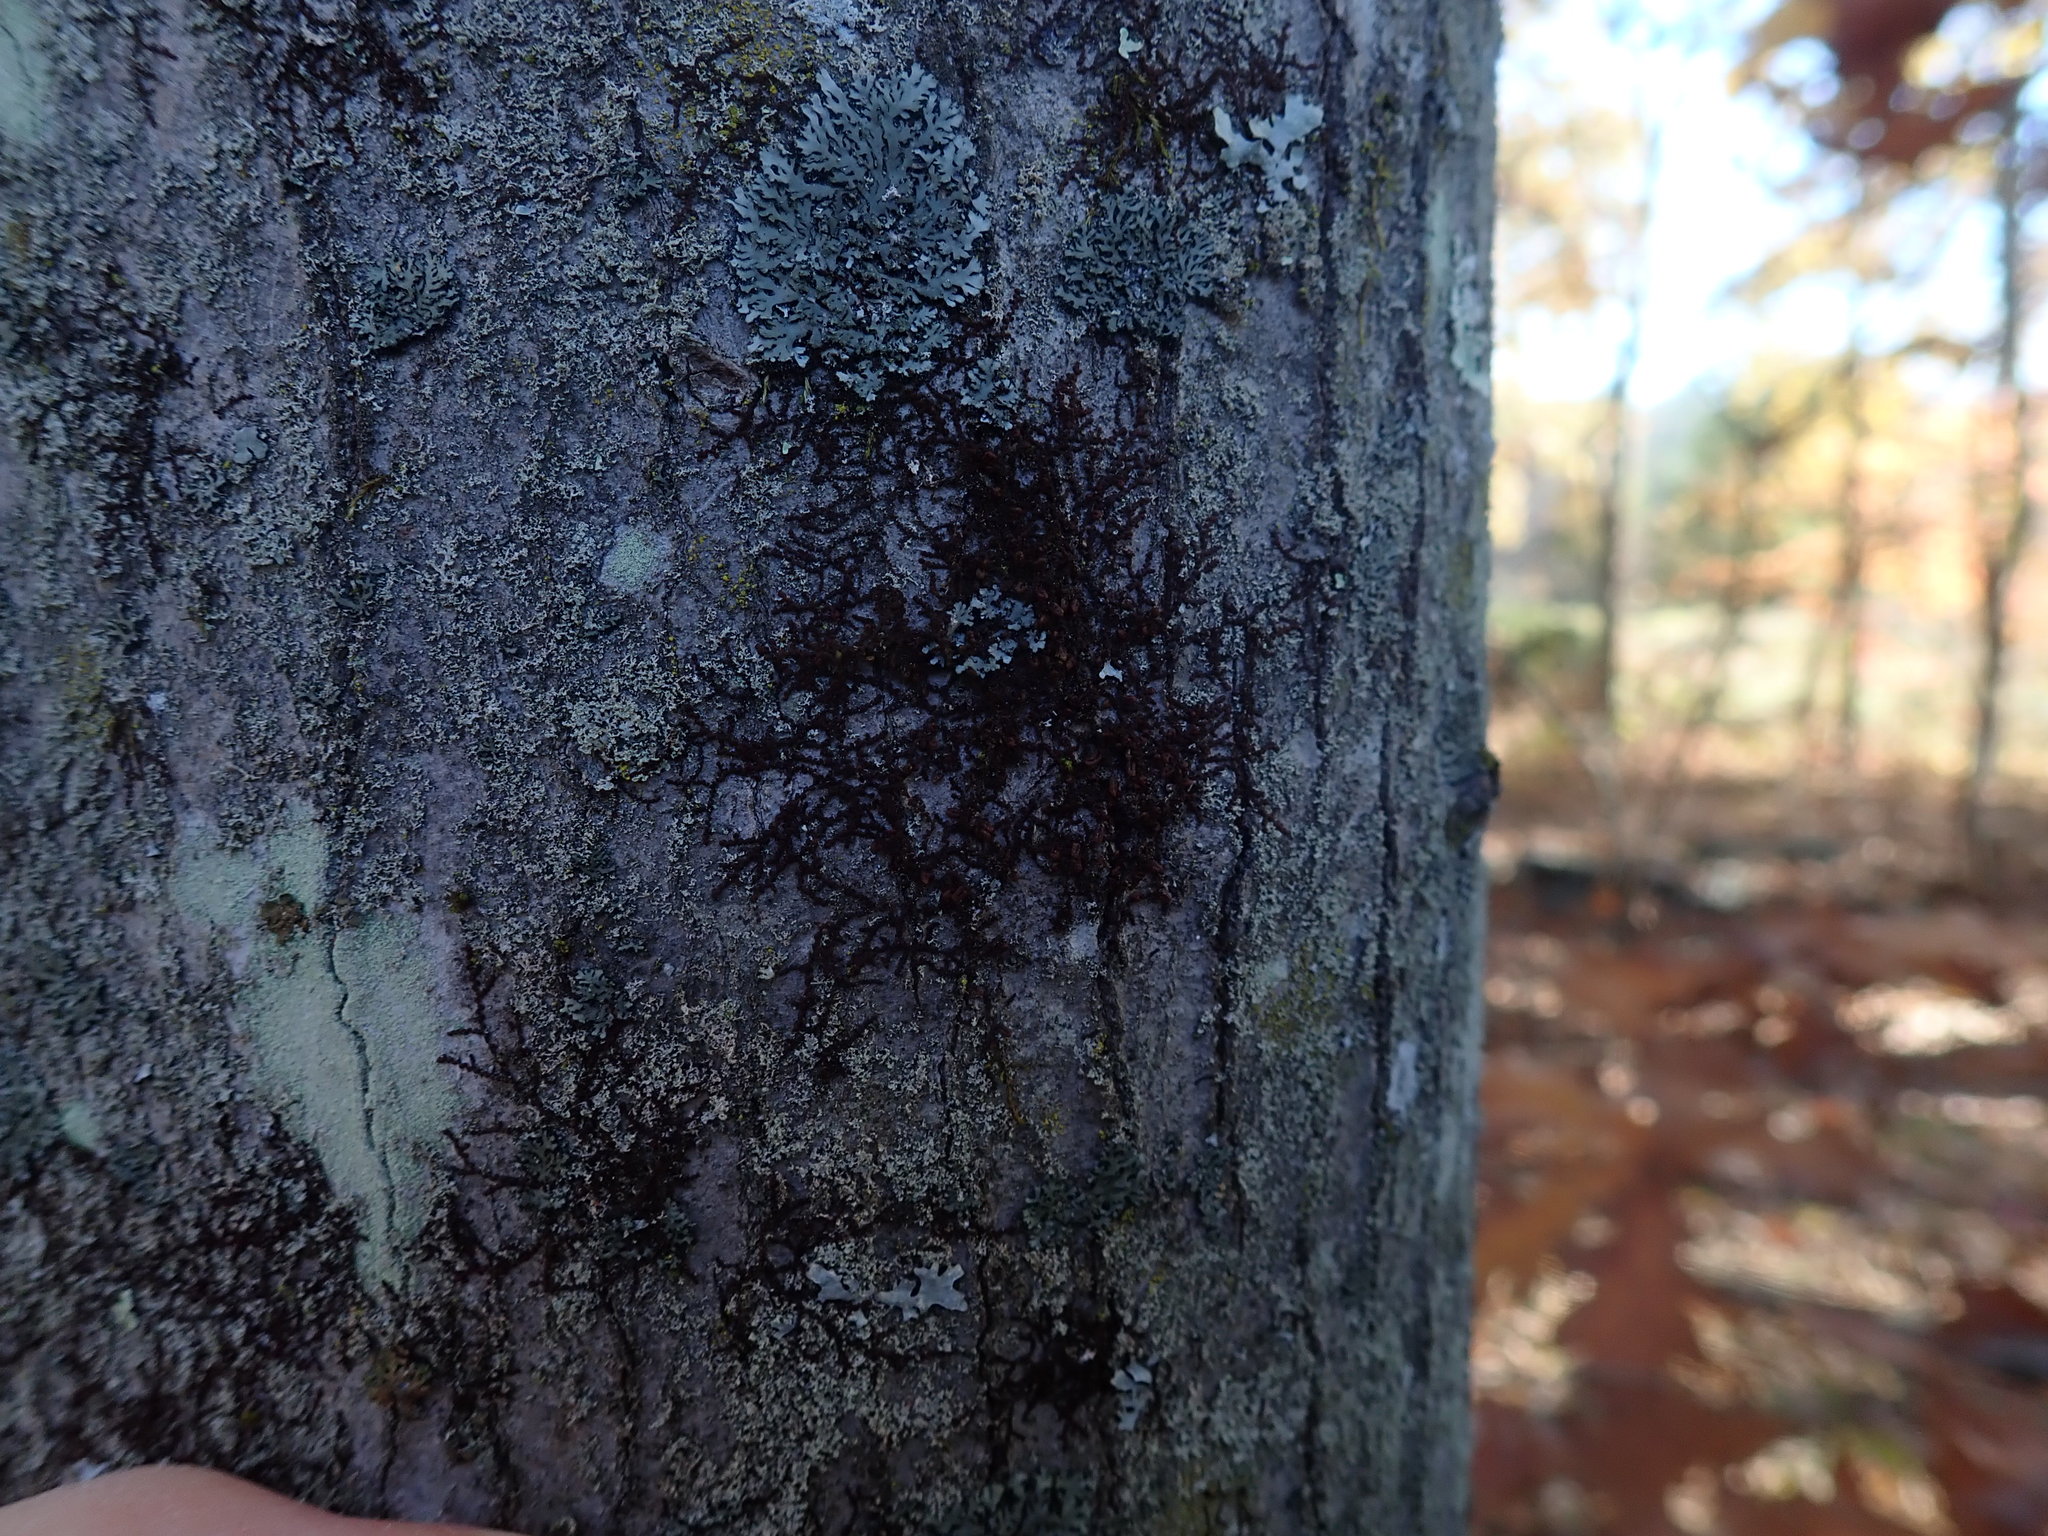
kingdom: Plantae
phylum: Marchantiophyta
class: Jungermanniopsida
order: Porellales
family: Frullaniaceae
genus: Frullania
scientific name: Frullania
